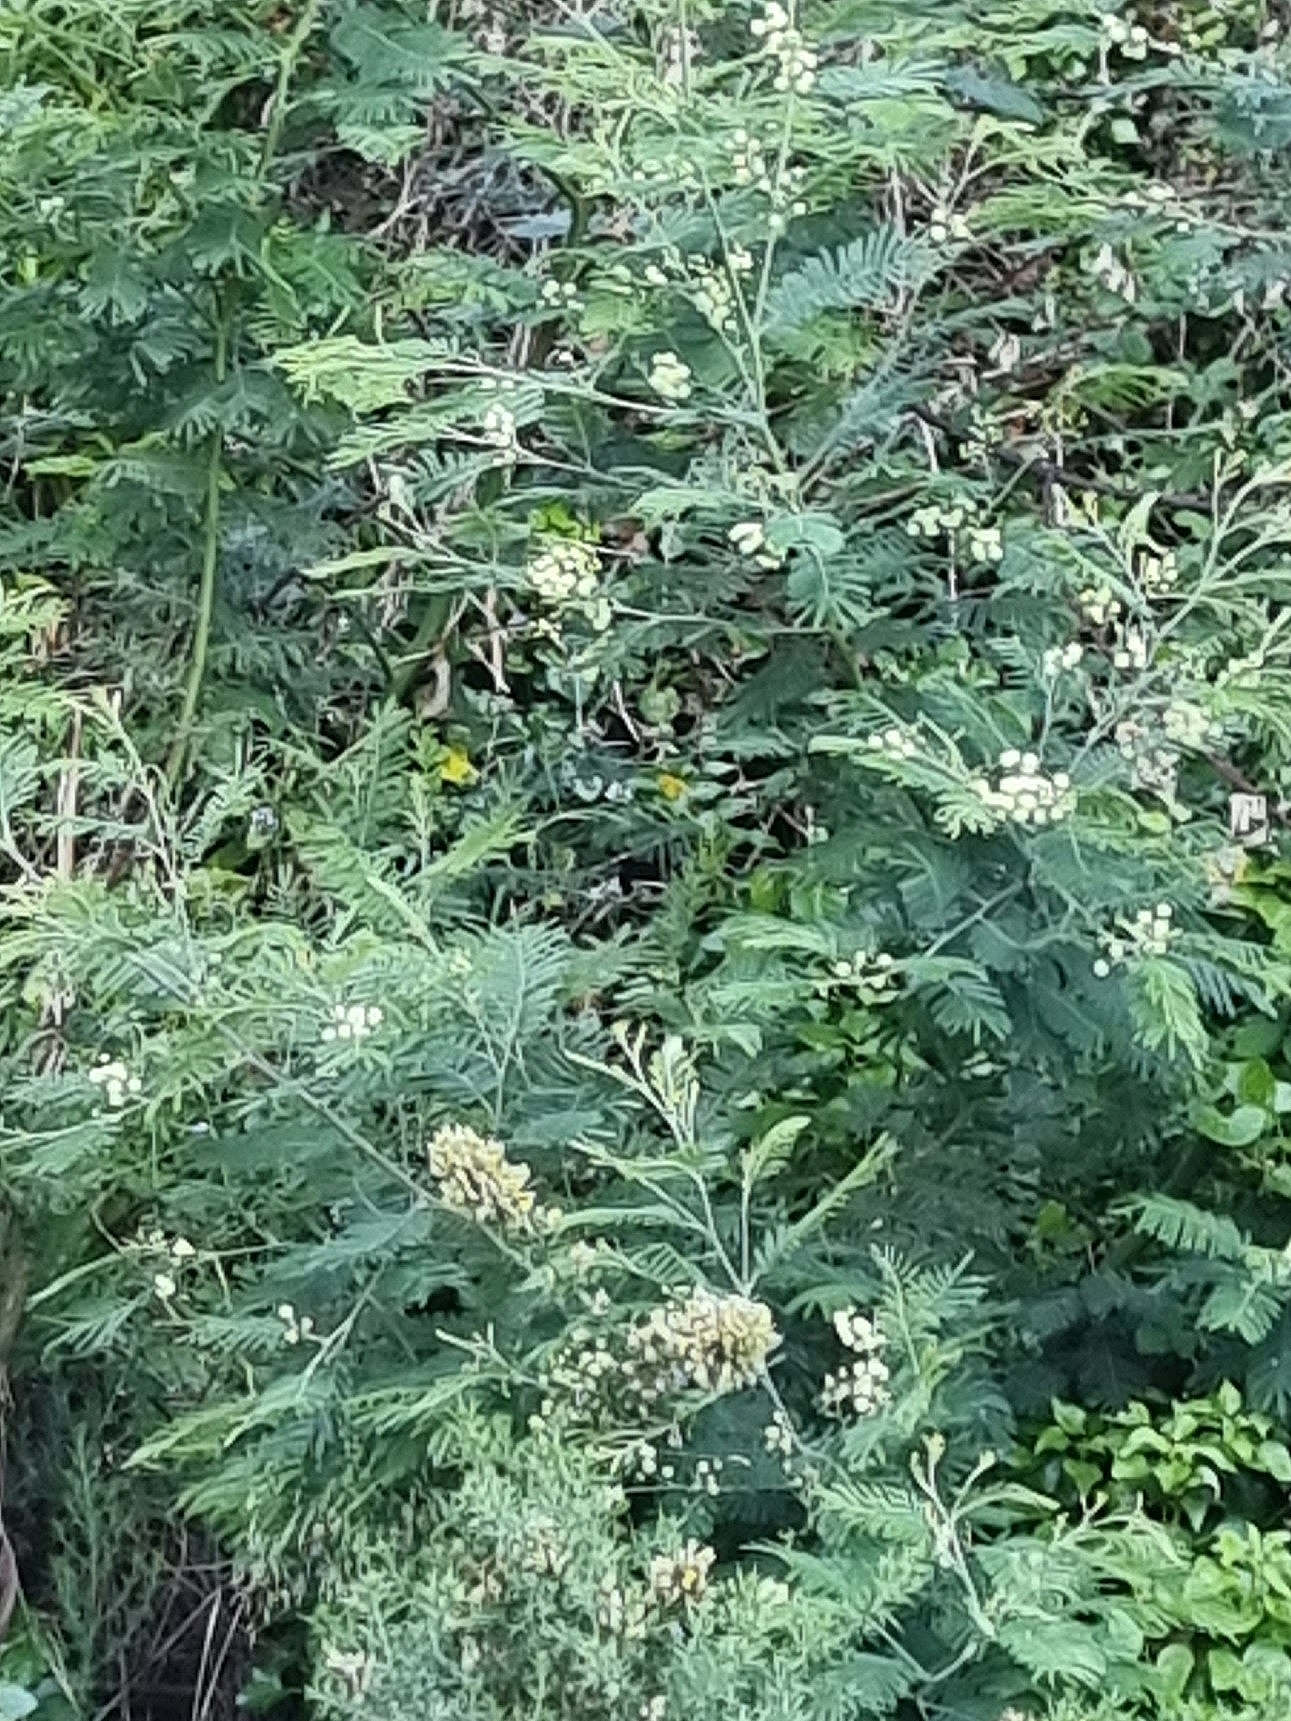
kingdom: Plantae
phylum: Tracheophyta
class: Magnoliopsida
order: Fabales
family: Fabaceae
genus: Acacia
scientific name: Acacia mearnsii
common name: Black wattle
